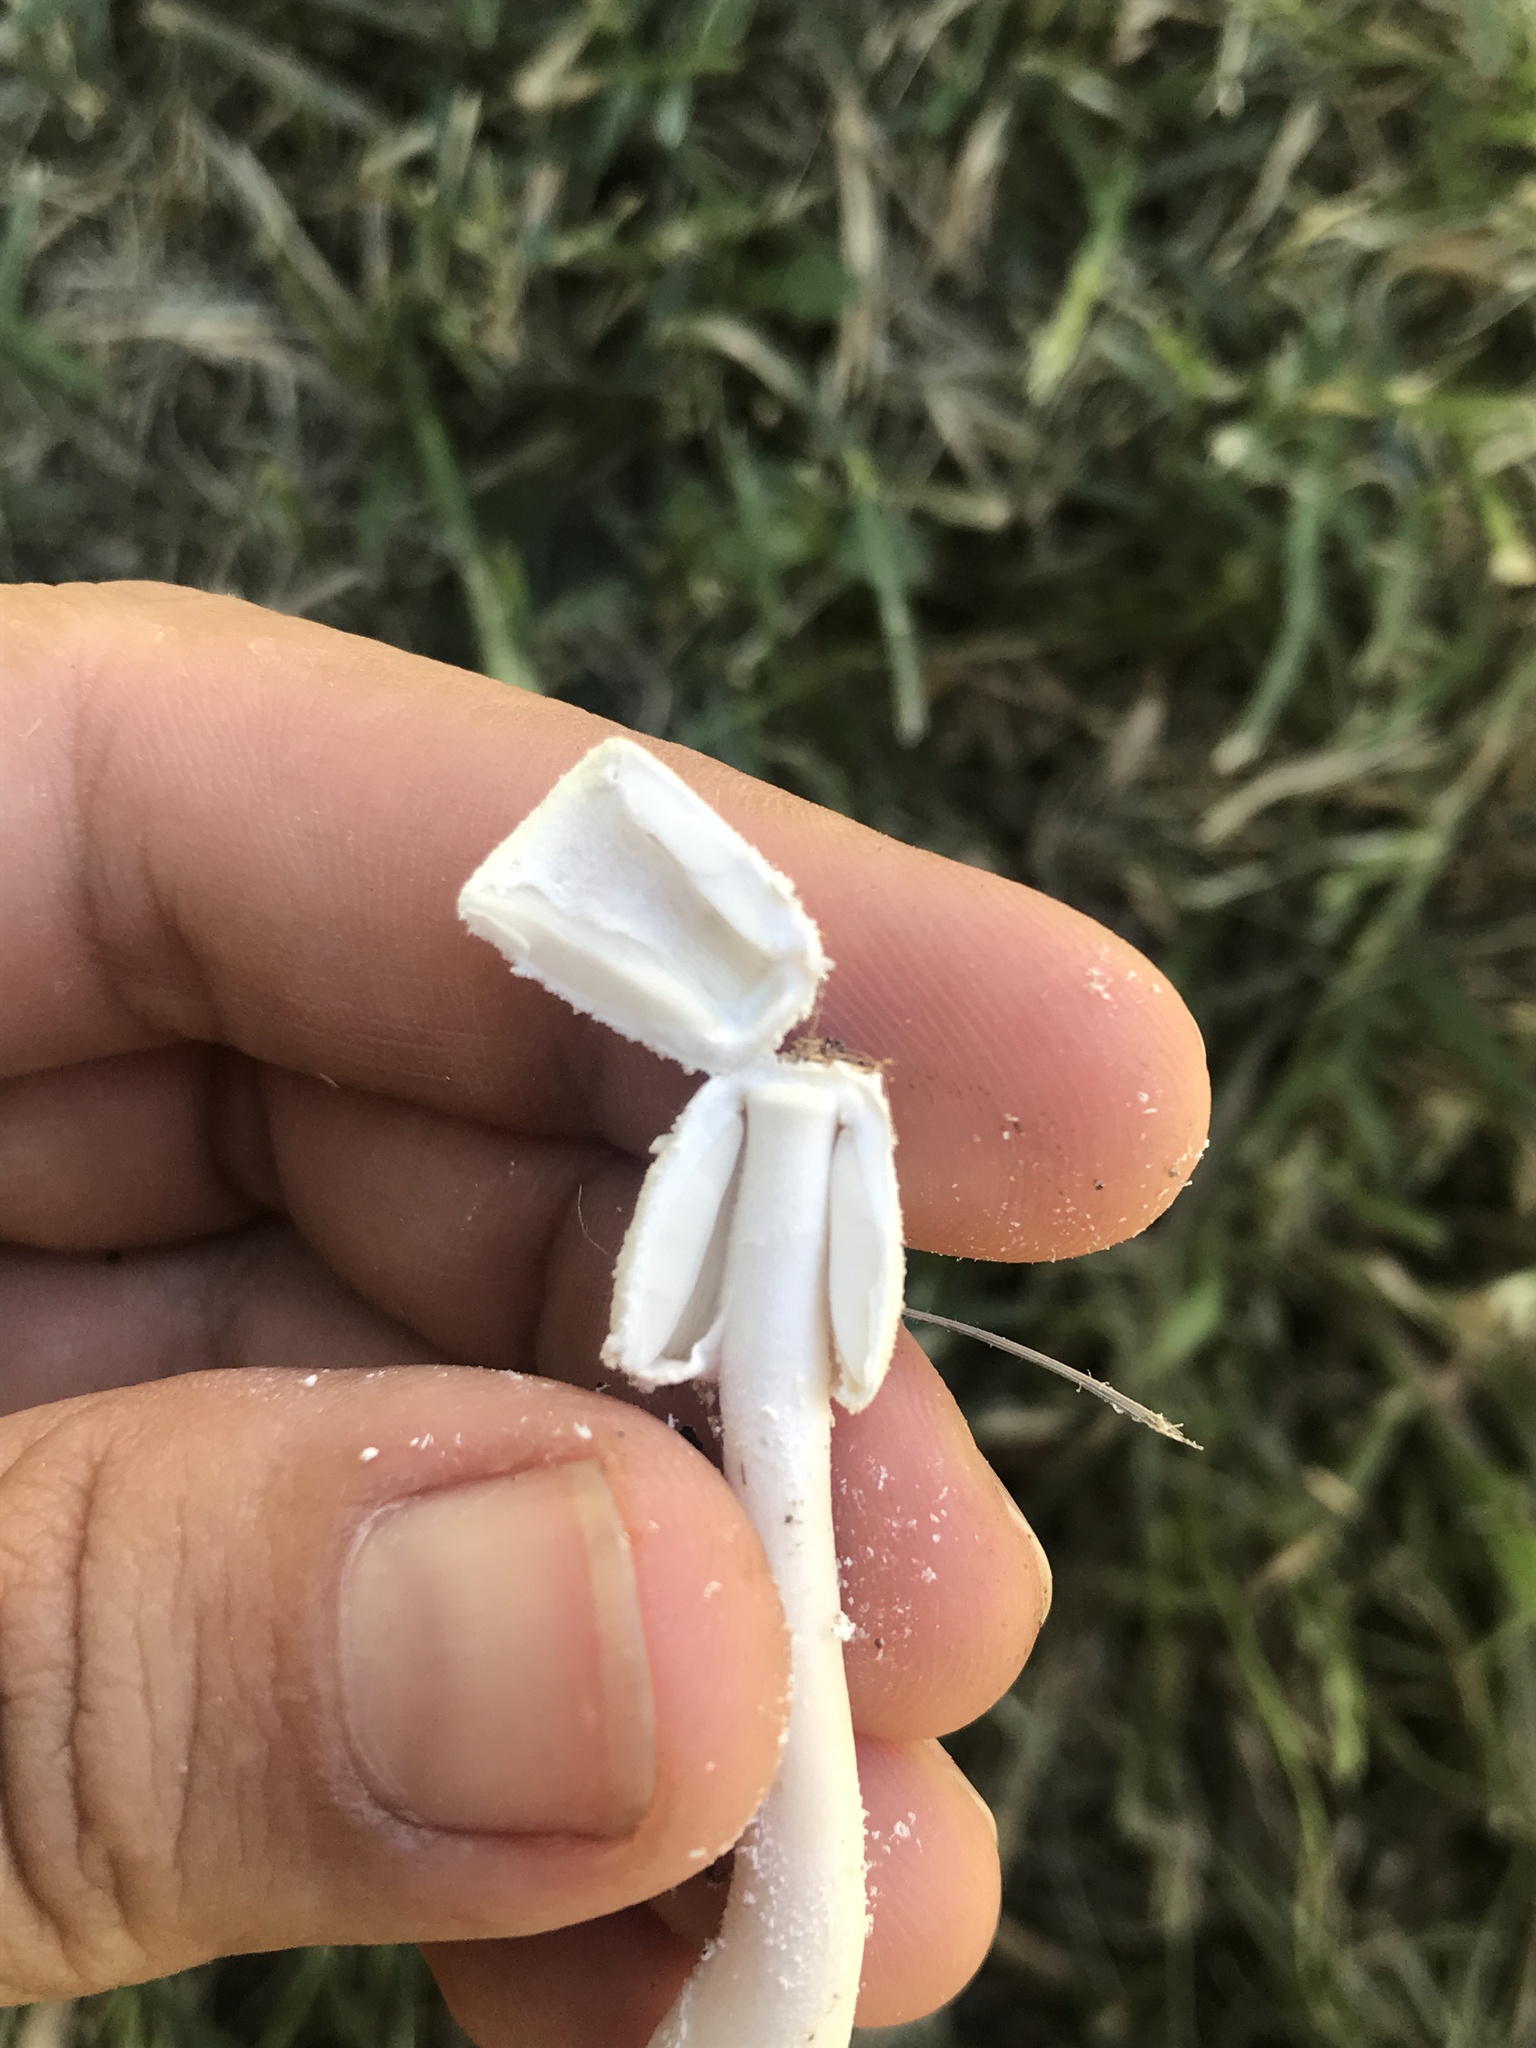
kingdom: Fungi
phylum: Basidiomycota
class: Agaricomycetes
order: Agaricales
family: Agaricaceae
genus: Leucocoprinus
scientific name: Leucocoprinus cretaceus
